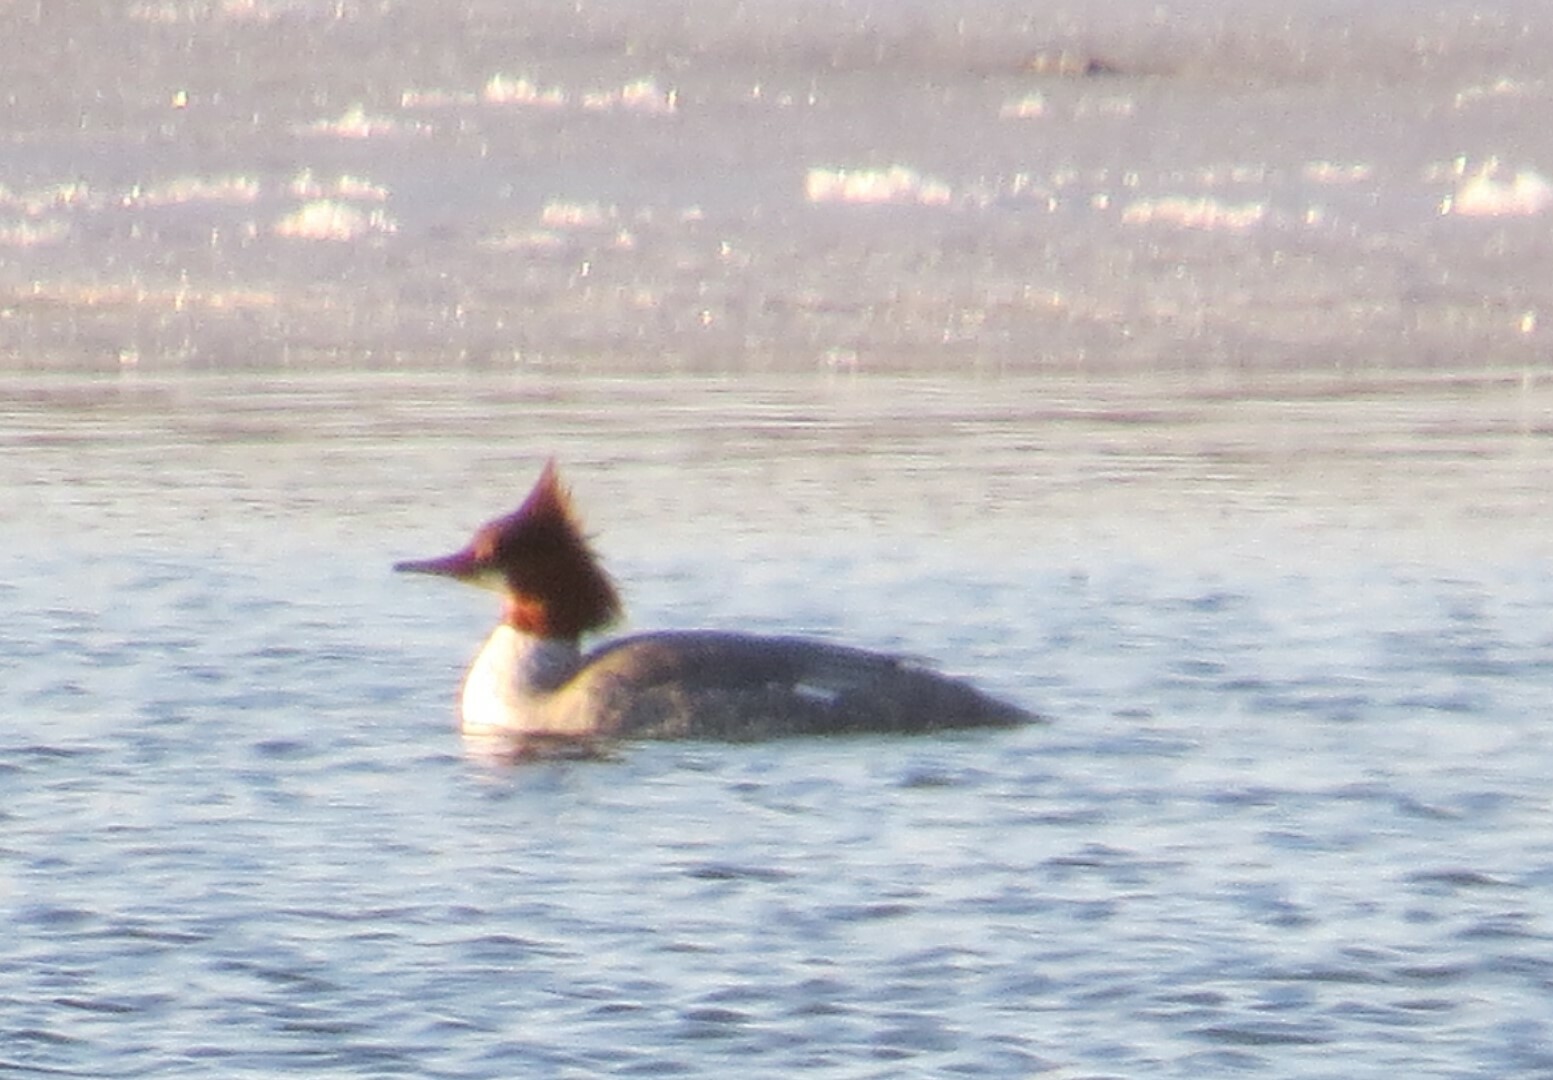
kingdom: Animalia
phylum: Chordata
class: Aves
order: Anseriformes
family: Anatidae
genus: Mergus
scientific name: Mergus merganser
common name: Common merganser
